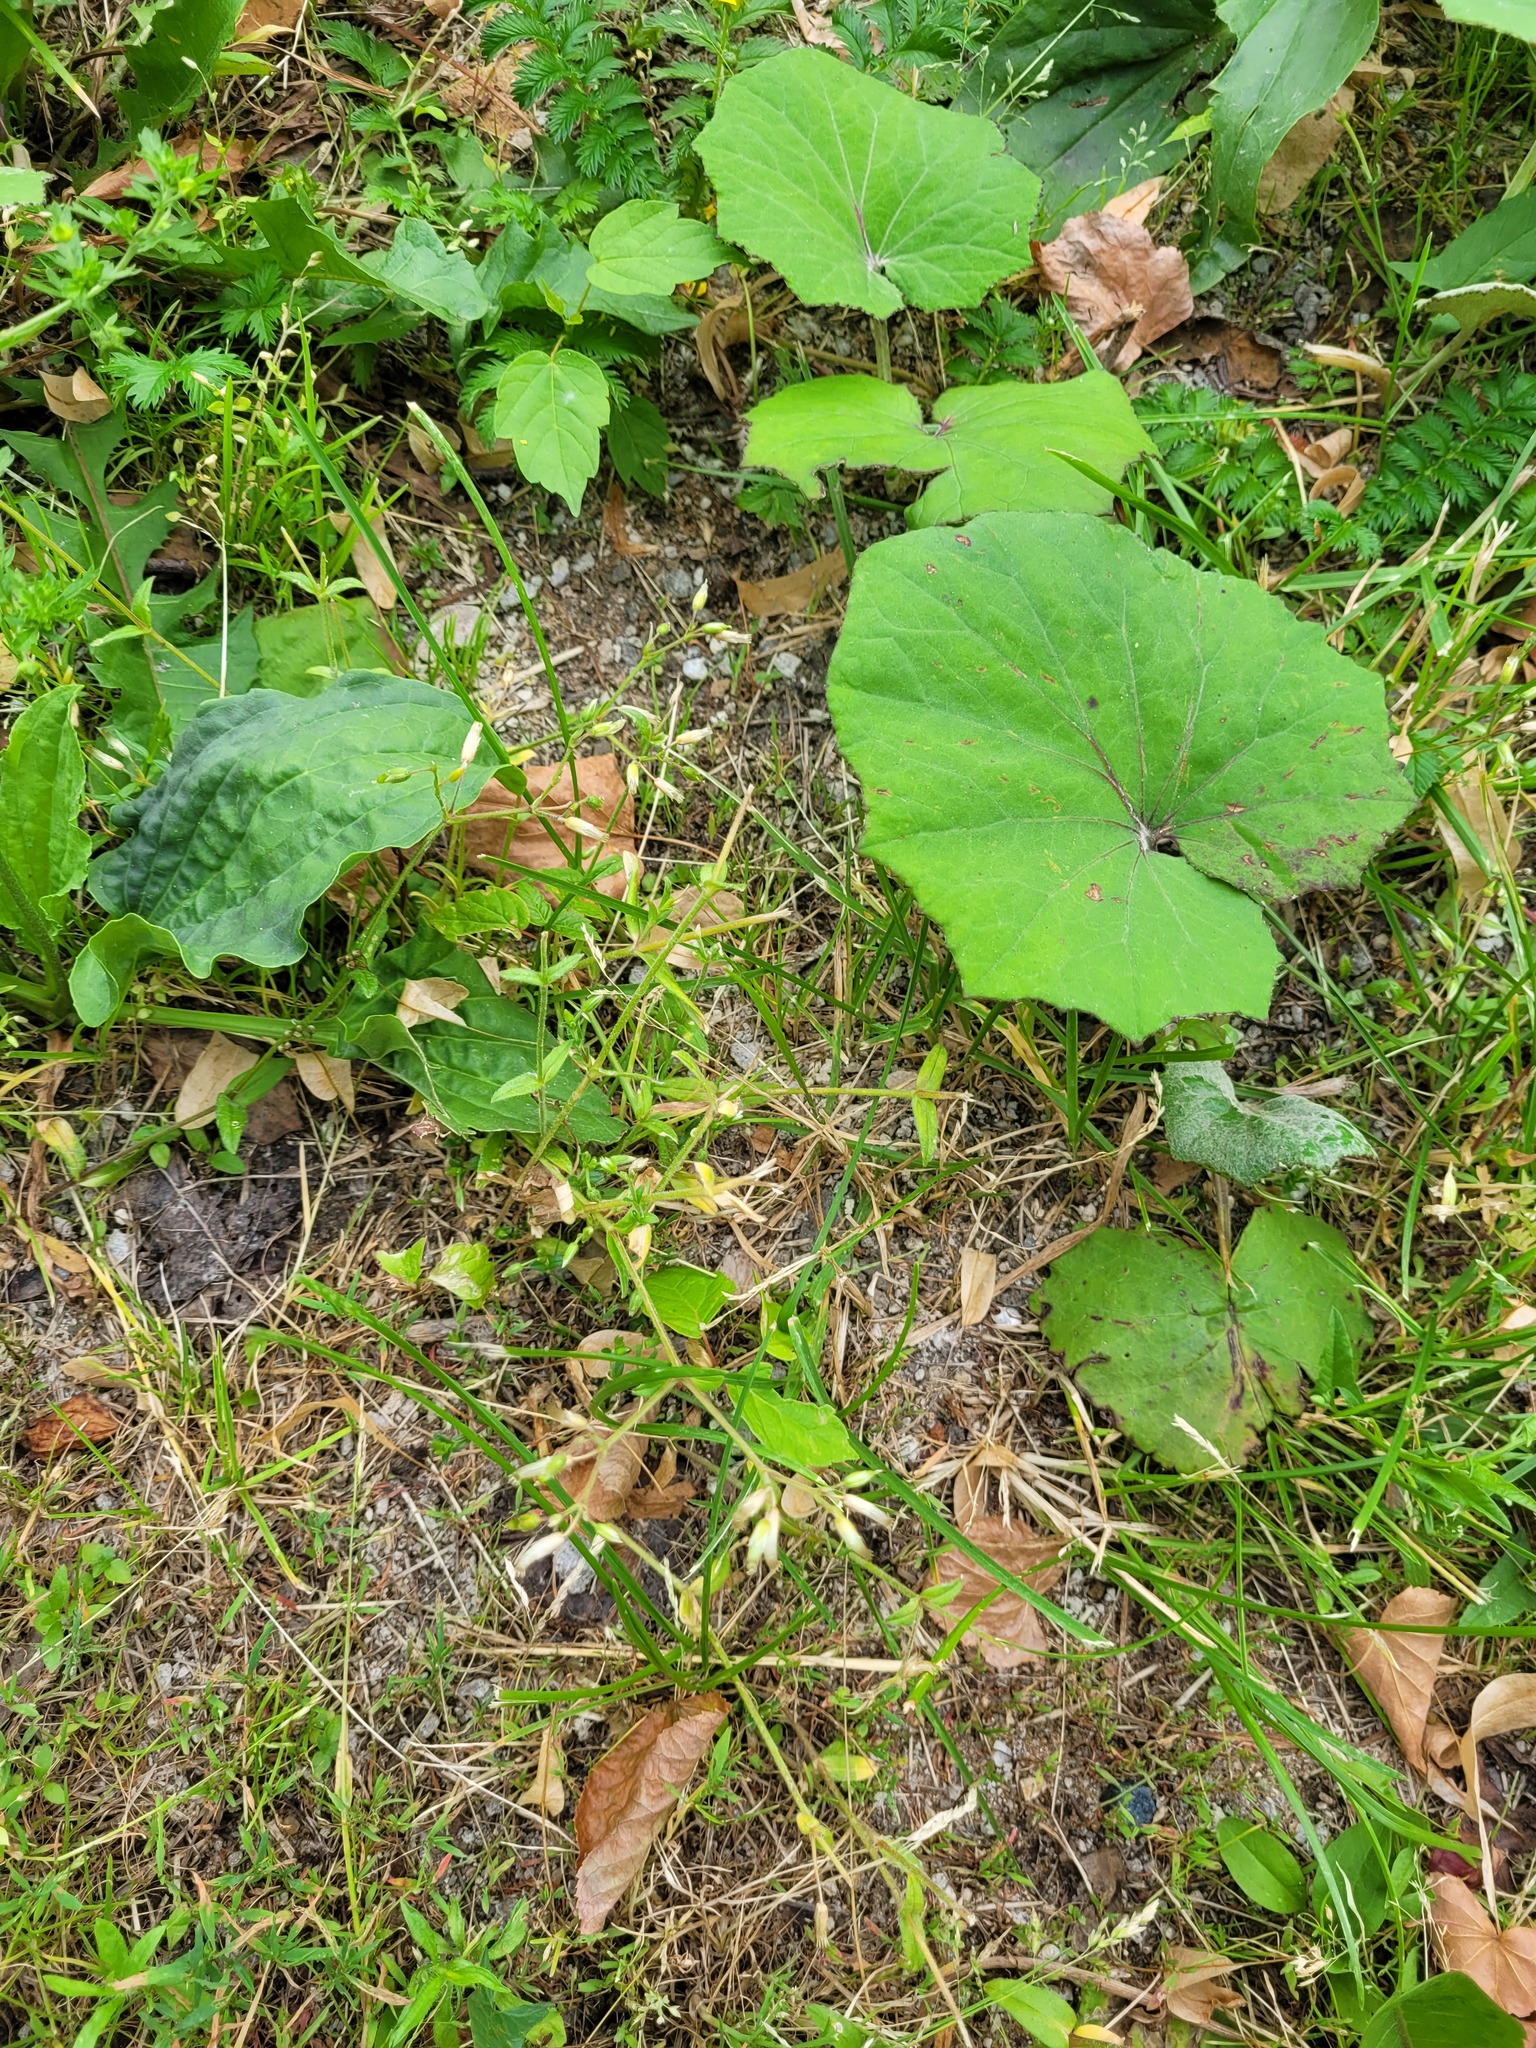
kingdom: Plantae
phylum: Tracheophyta
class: Magnoliopsida
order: Caryophyllales
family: Caryophyllaceae
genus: Cerastium
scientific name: Cerastium holosteoides
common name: Big chickweed
